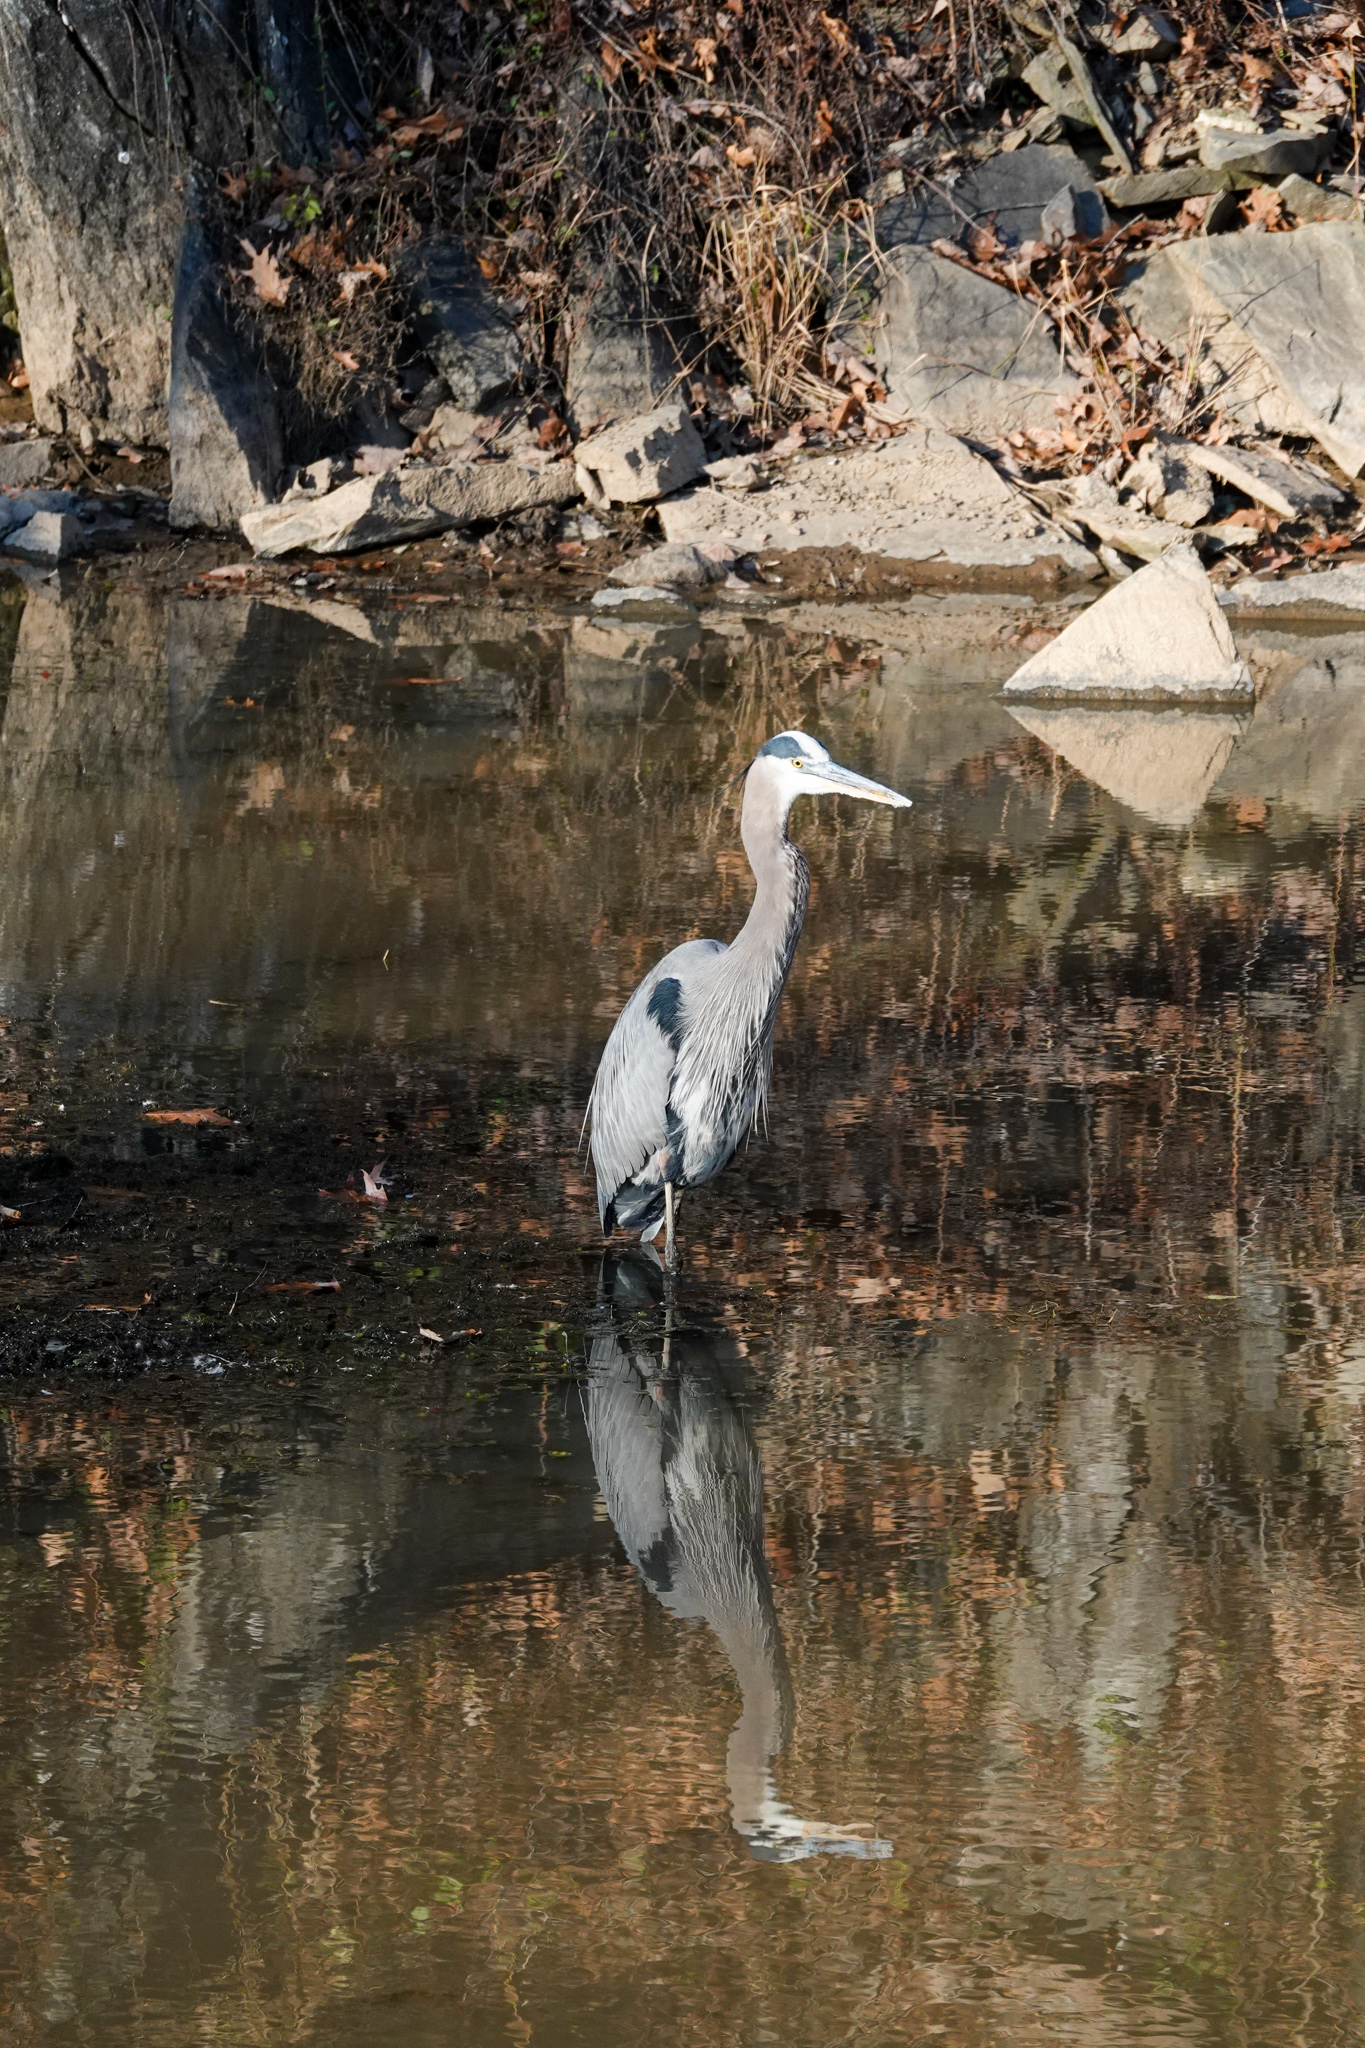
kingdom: Animalia
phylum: Chordata
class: Aves
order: Pelecaniformes
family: Ardeidae
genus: Ardea
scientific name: Ardea herodias
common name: Great blue heron
